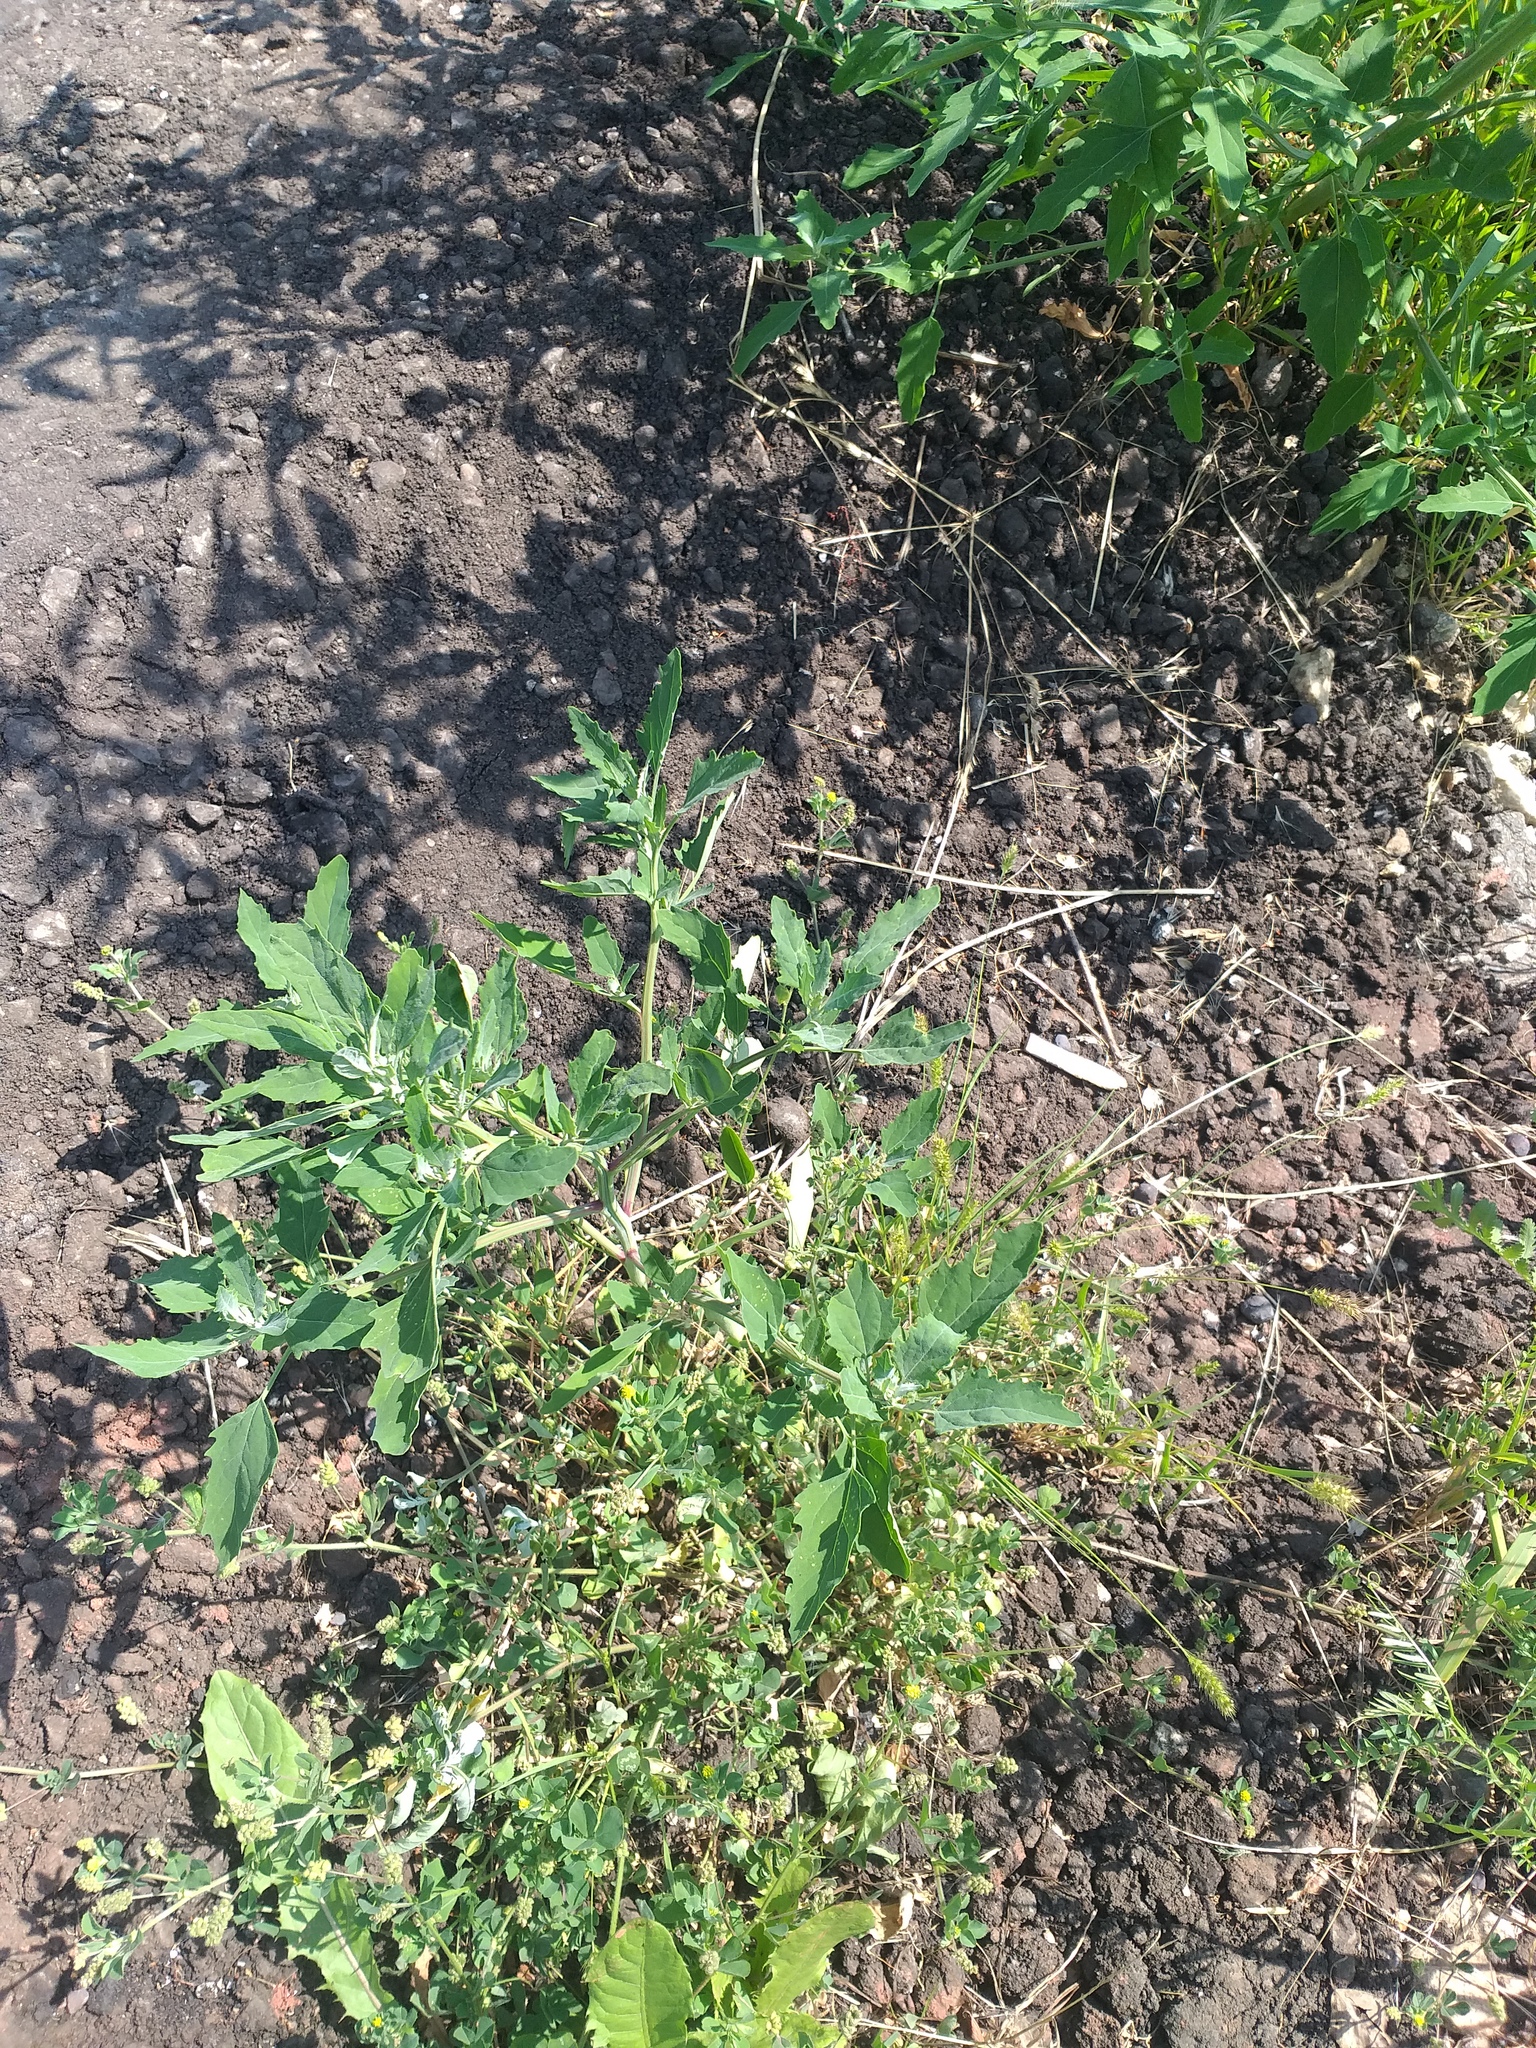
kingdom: Plantae
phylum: Tracheophyta
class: Magnoliopsida
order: Caryophyllales
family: Amaranthaceae
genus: Chenopodium
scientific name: Chenopodium album
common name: Fat-hen
